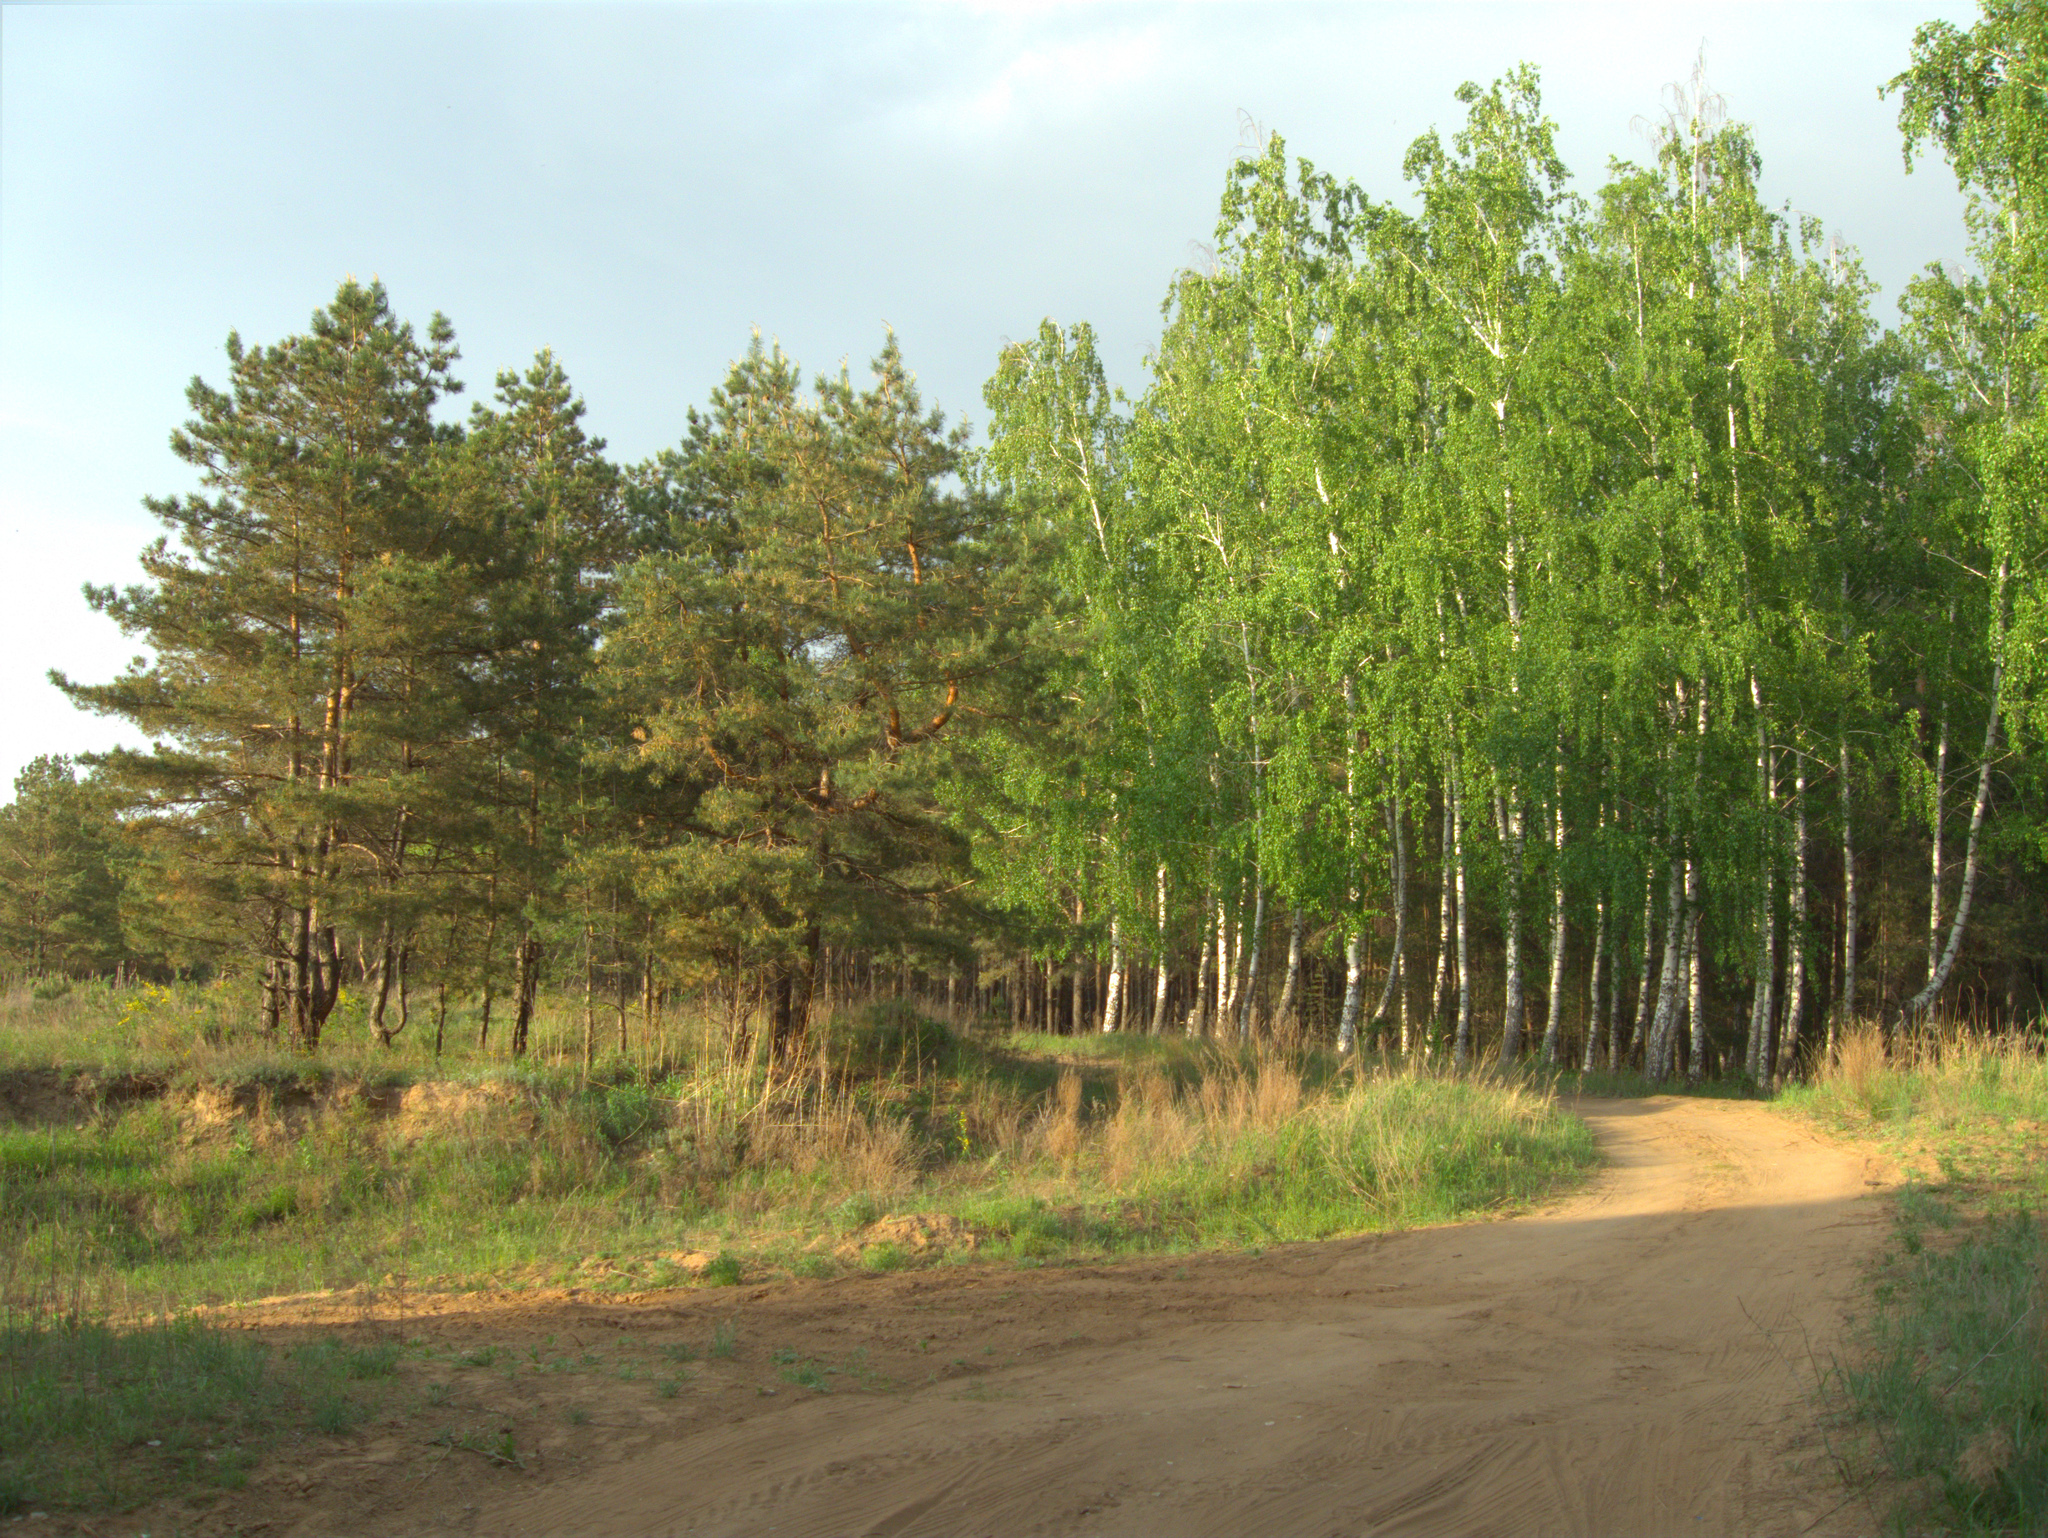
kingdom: Plantae
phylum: Tracheophyta
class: Magnoliopsida
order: Fagales
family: Betulaceae
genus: Betula
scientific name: Betula pendula
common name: Silver birch
